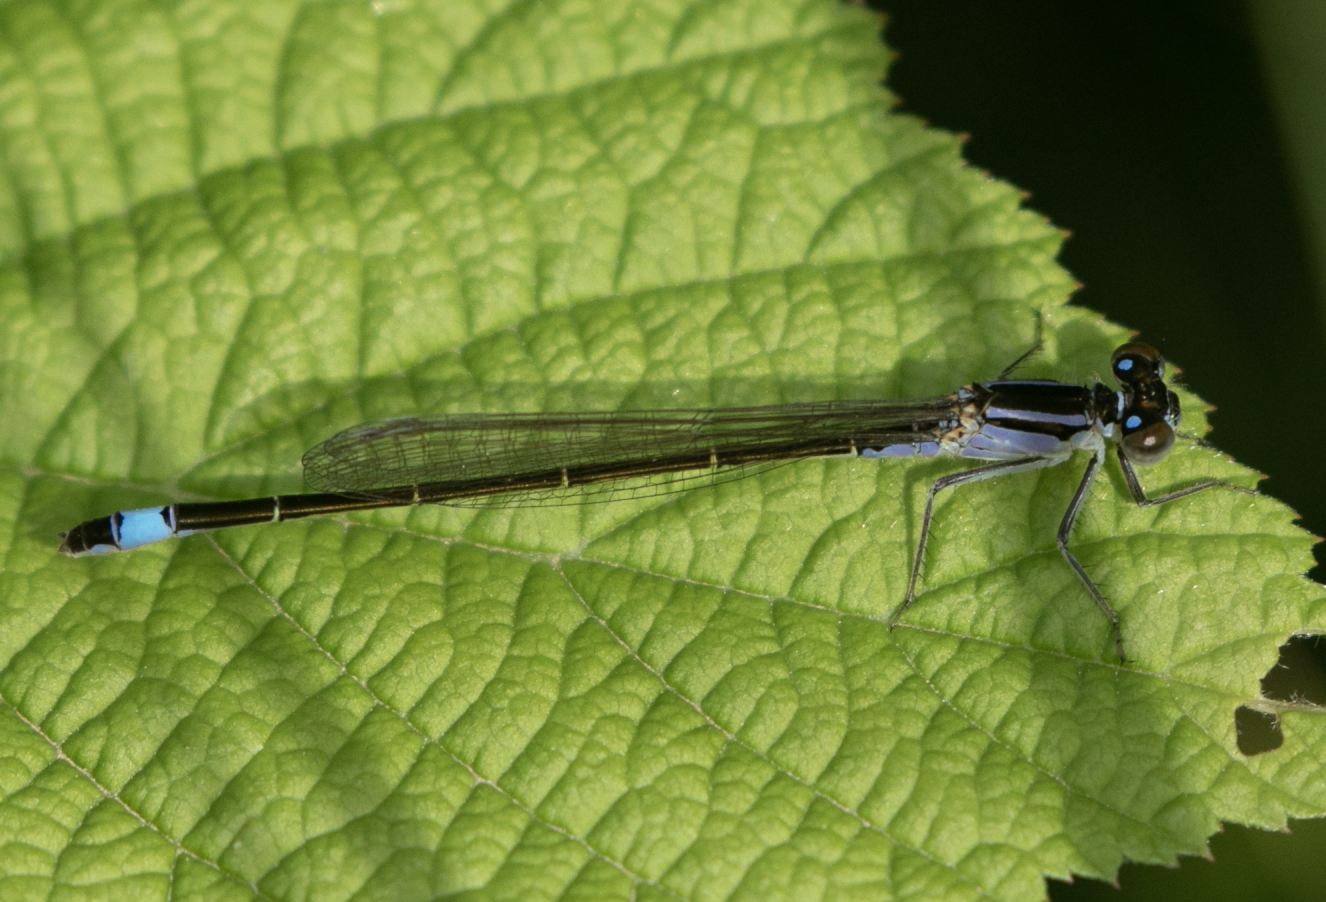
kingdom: Animalia
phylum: Arthropoda
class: Insecta
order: Odonata
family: Coenagrionidae
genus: Ischnura
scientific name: Ischnura elegans
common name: Blue-tailed damselfly
